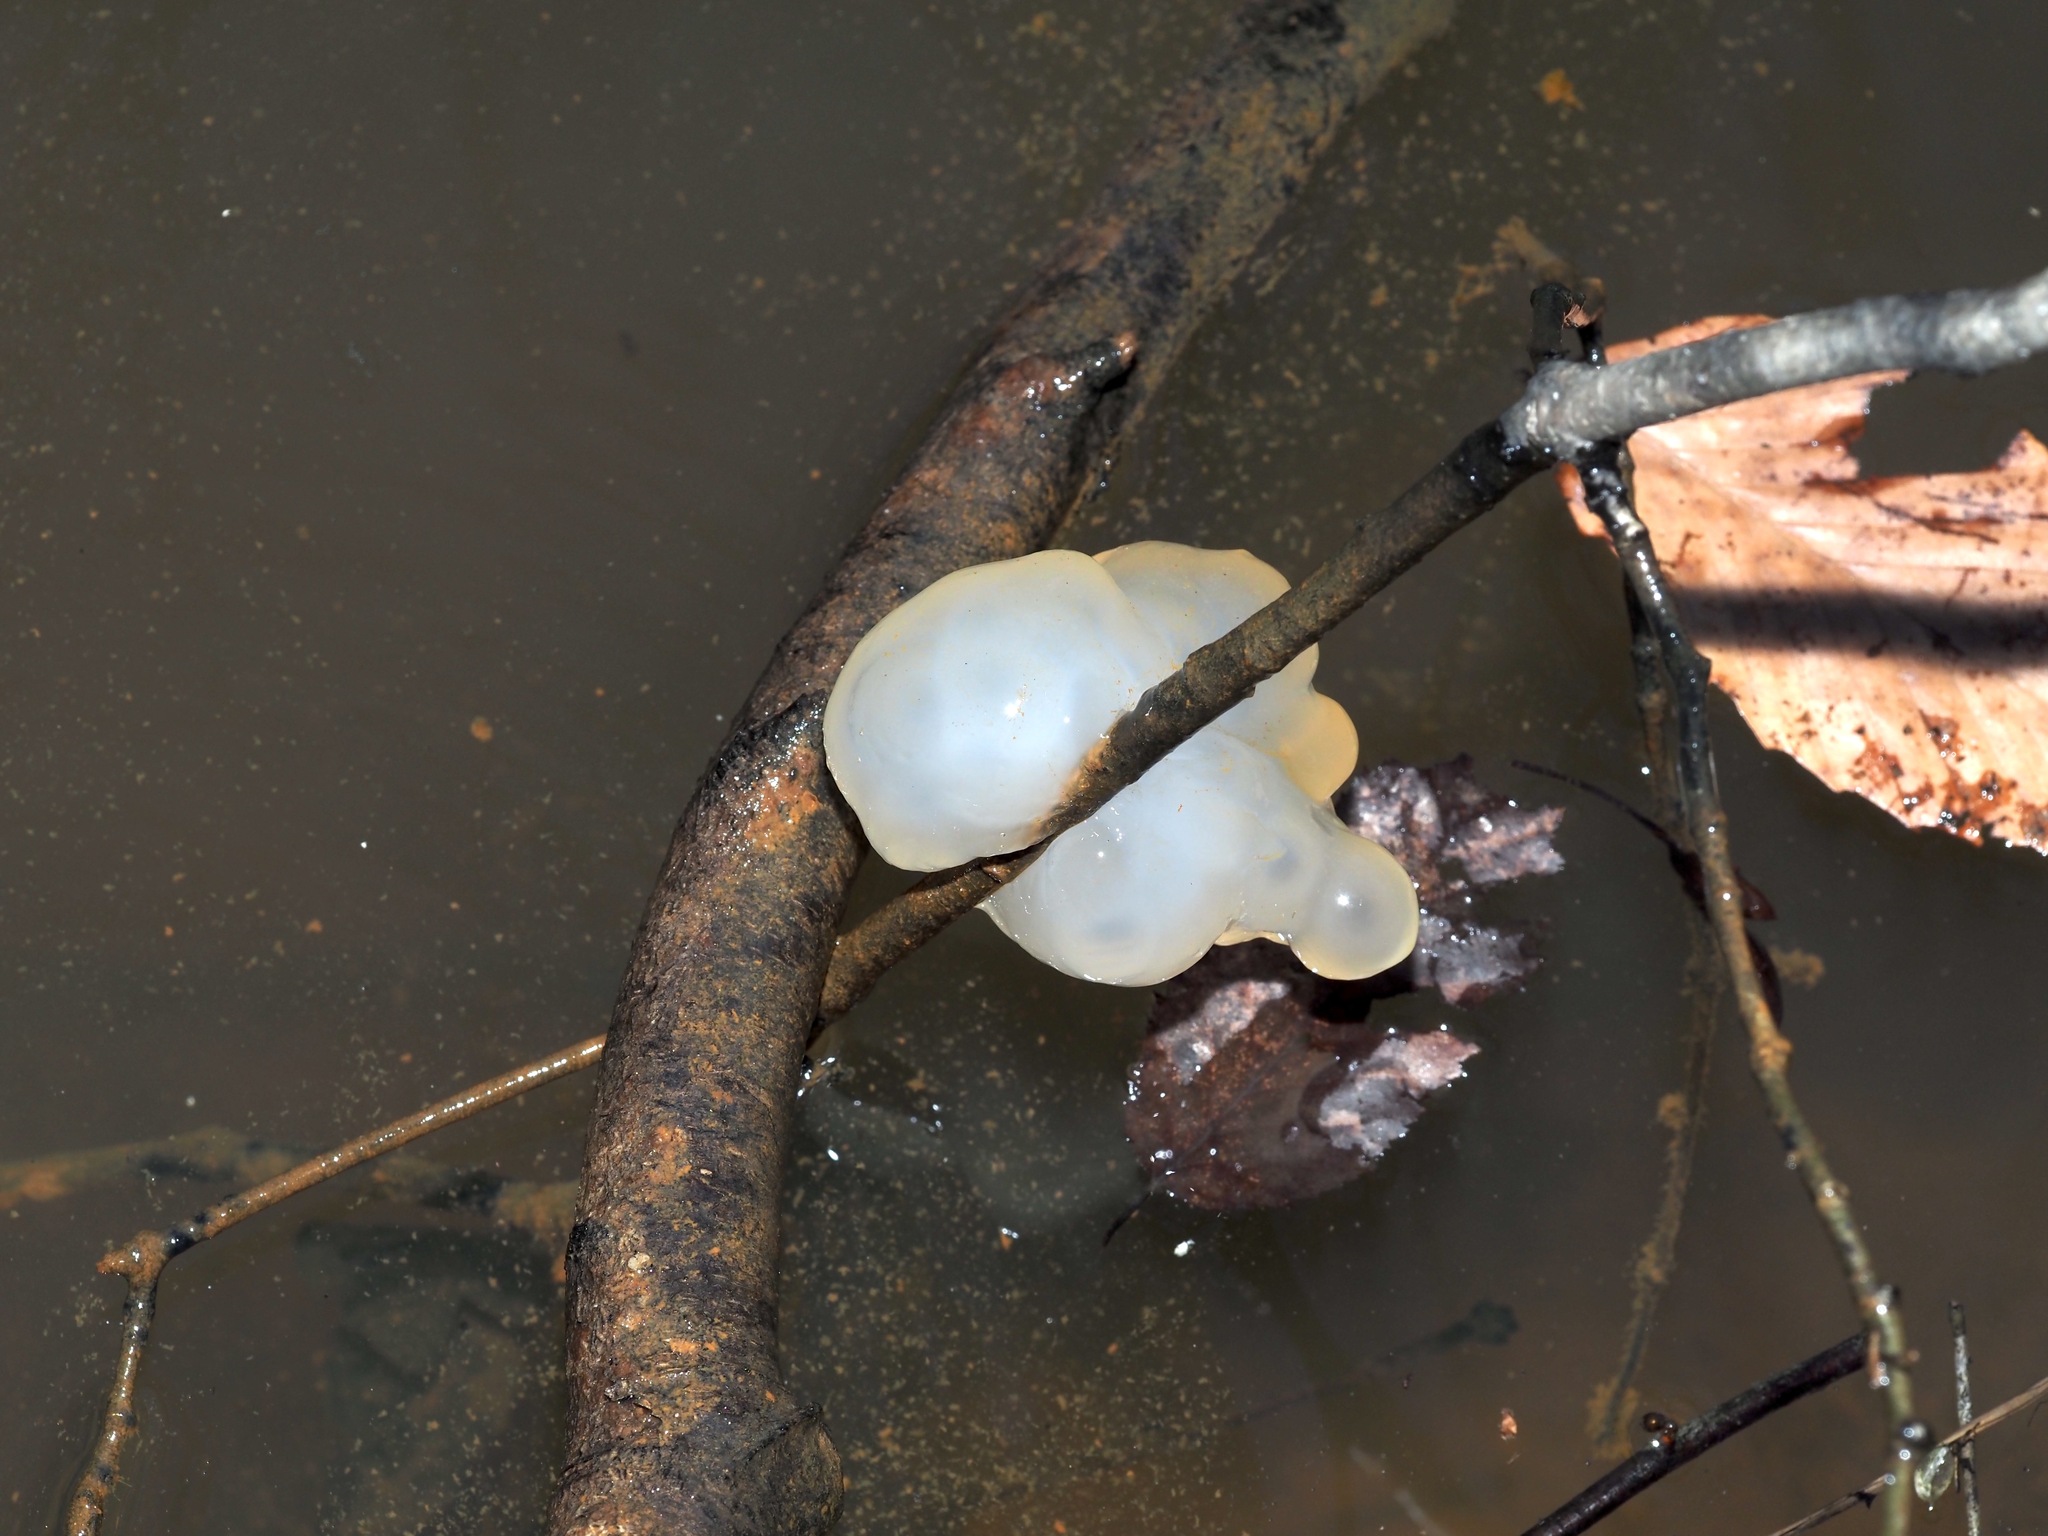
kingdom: Animalia
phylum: Chordata
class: Amphibia
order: Caudata
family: Ambystomatidae
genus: Ambystoma
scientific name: Ambystoma maculatum
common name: Spotted salamander
